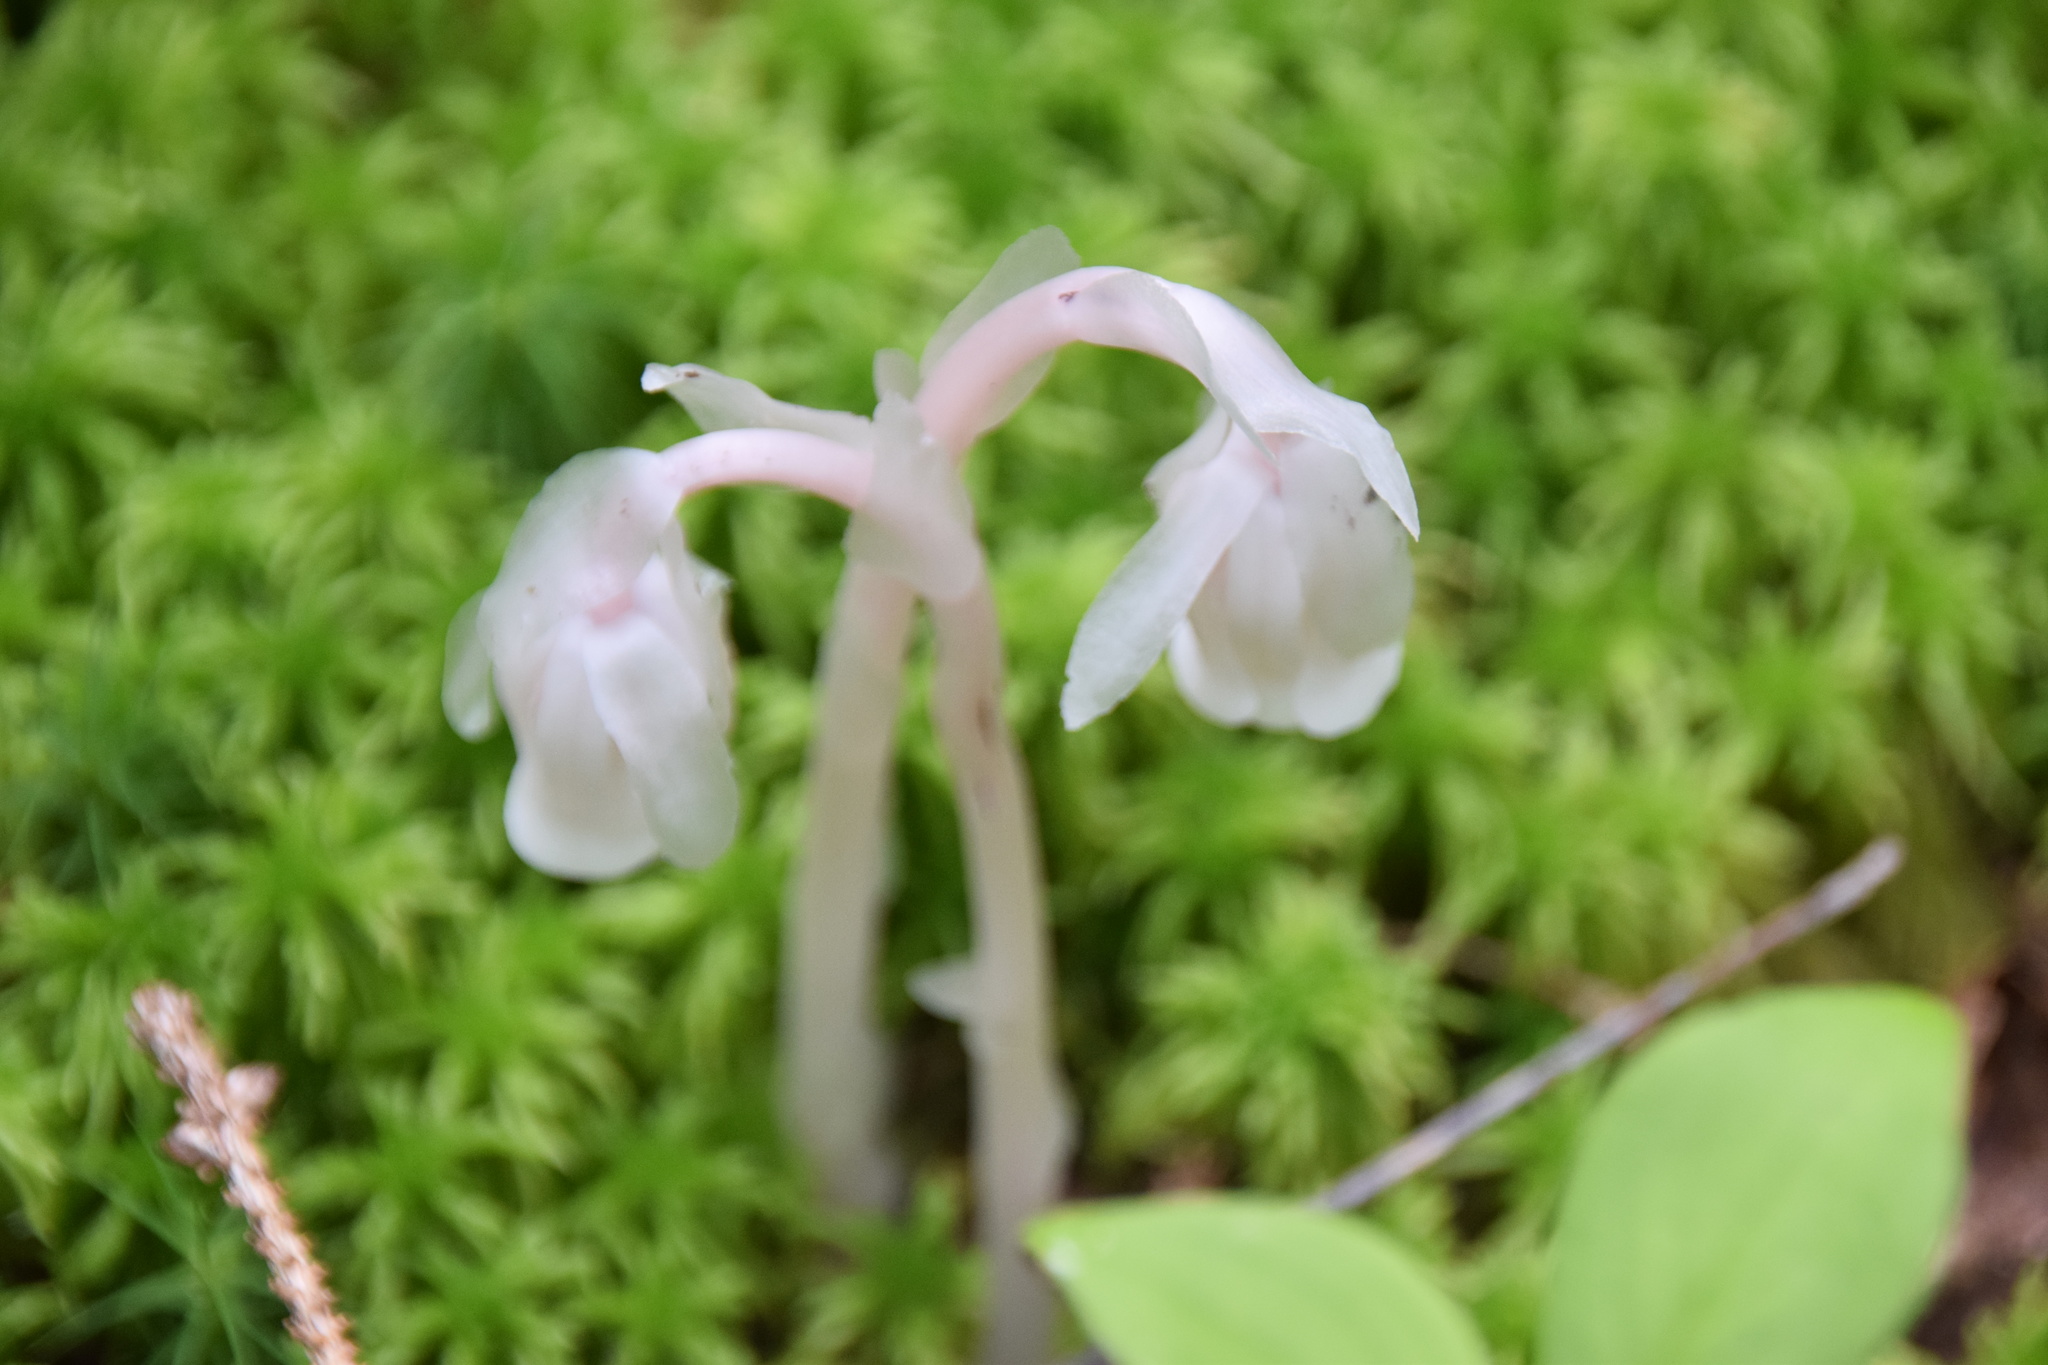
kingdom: Plantae
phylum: Tracheophyta
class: Magnoliopsida
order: Ericales
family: Ericaceae
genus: Monotropa
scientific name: Monotropa uniflora
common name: Convulsion root
